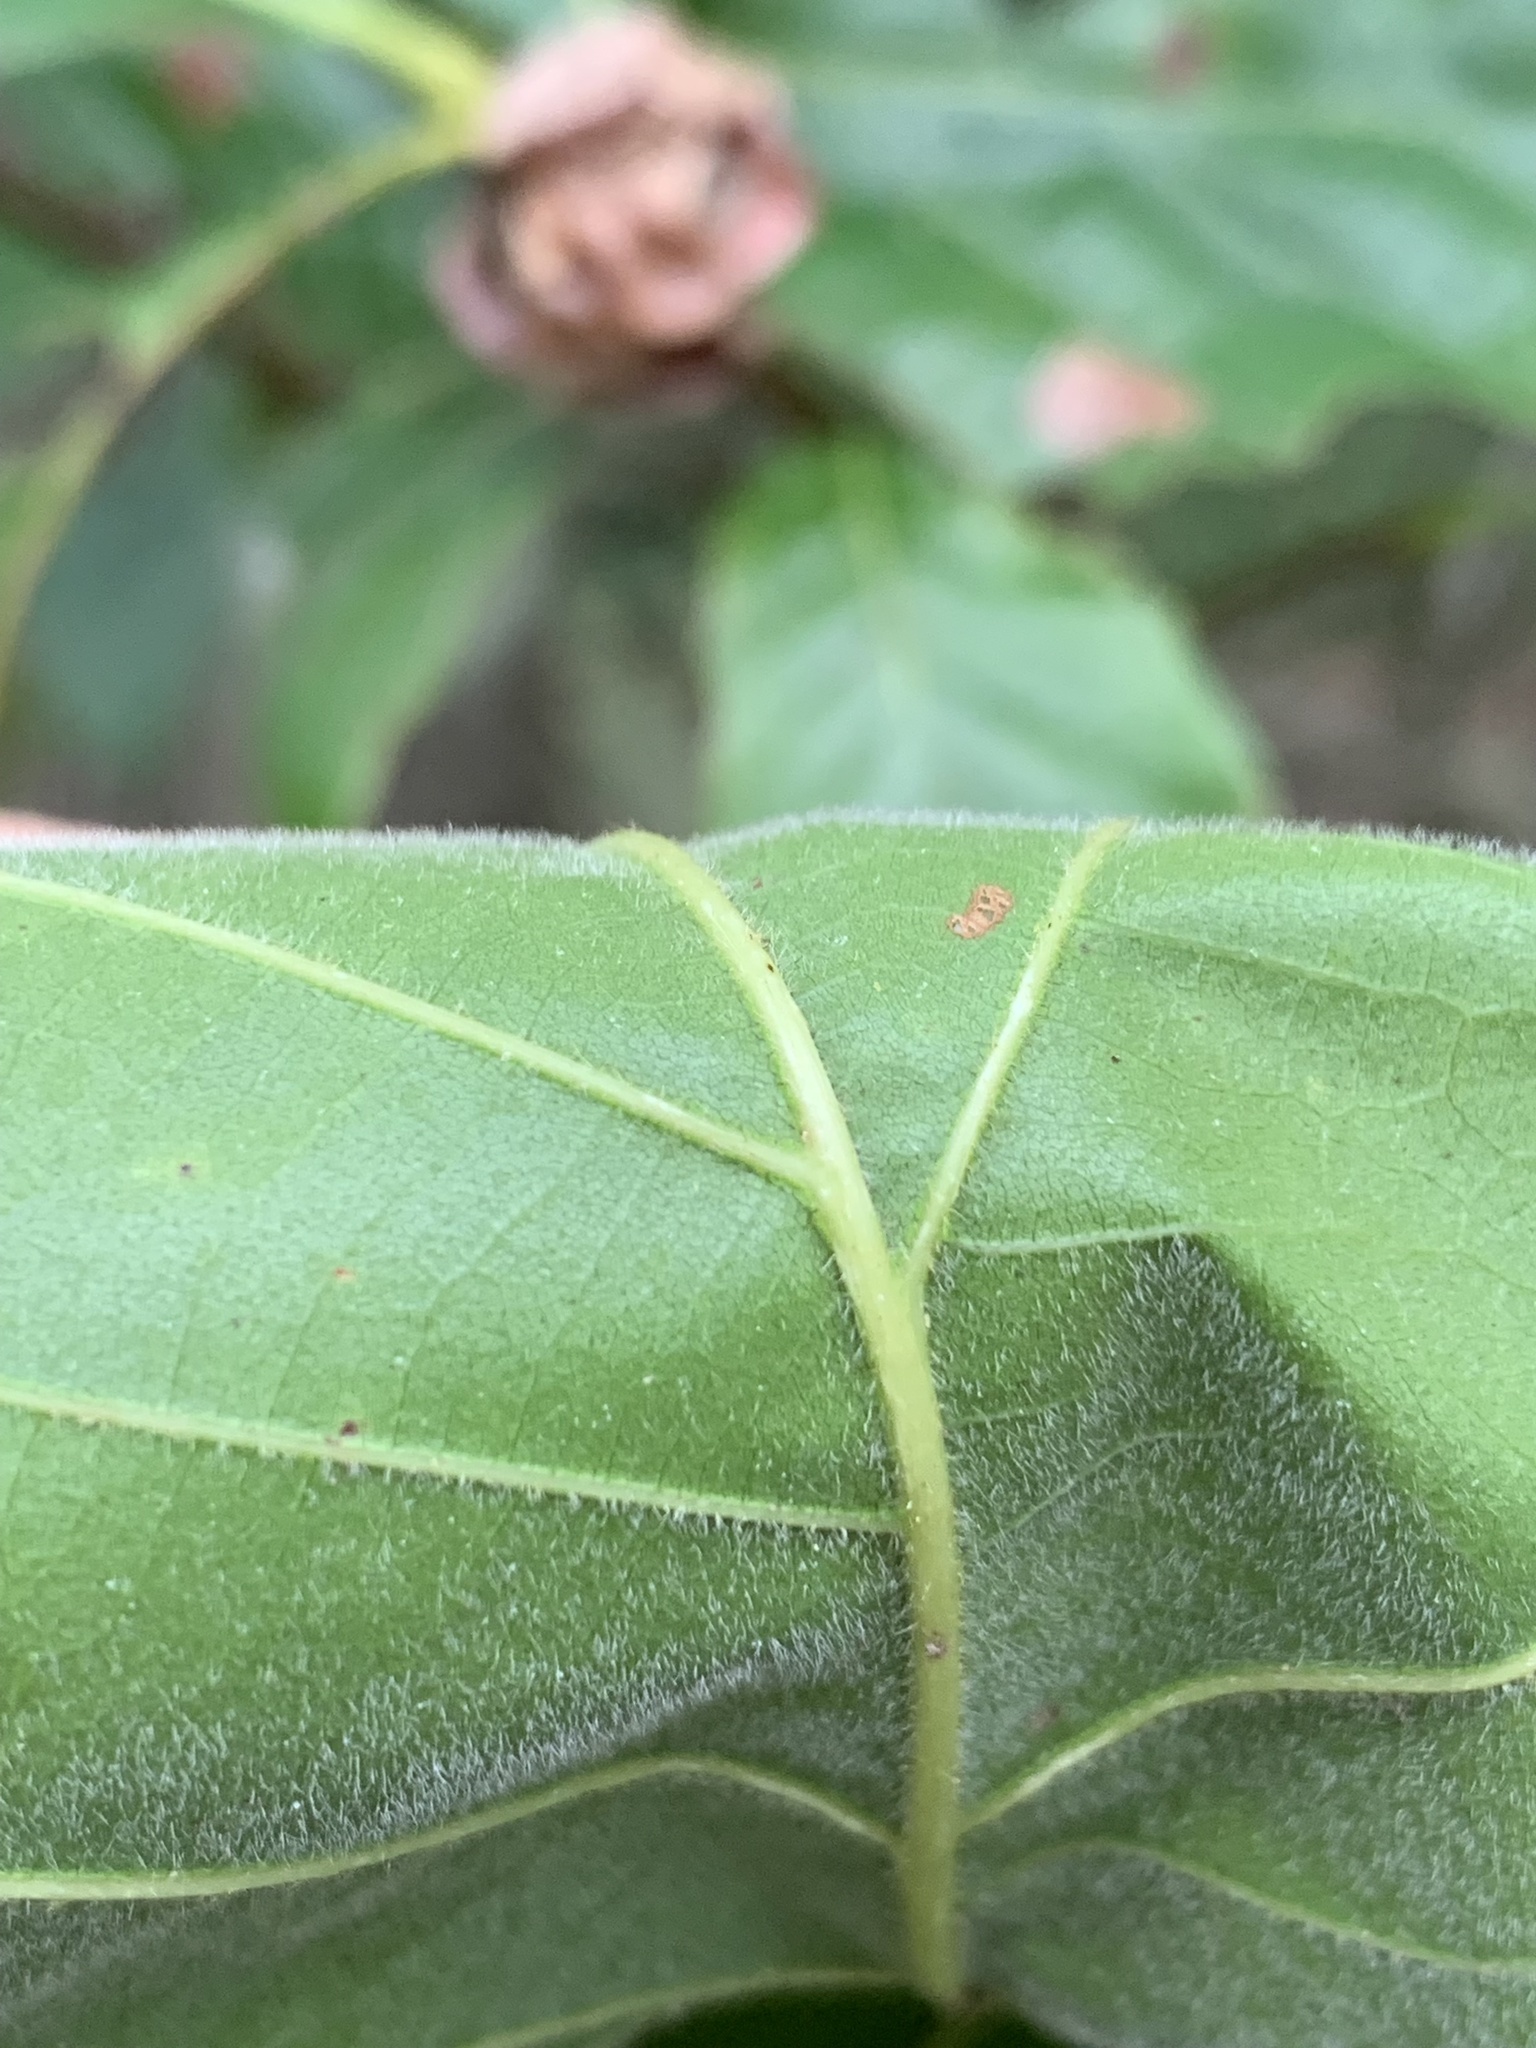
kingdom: Plantae
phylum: Tracheophyta
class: Magnoliopsida
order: Fagales
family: Fagaceae
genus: Quercus
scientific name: Quercus bicolor
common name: Swamp white oak
